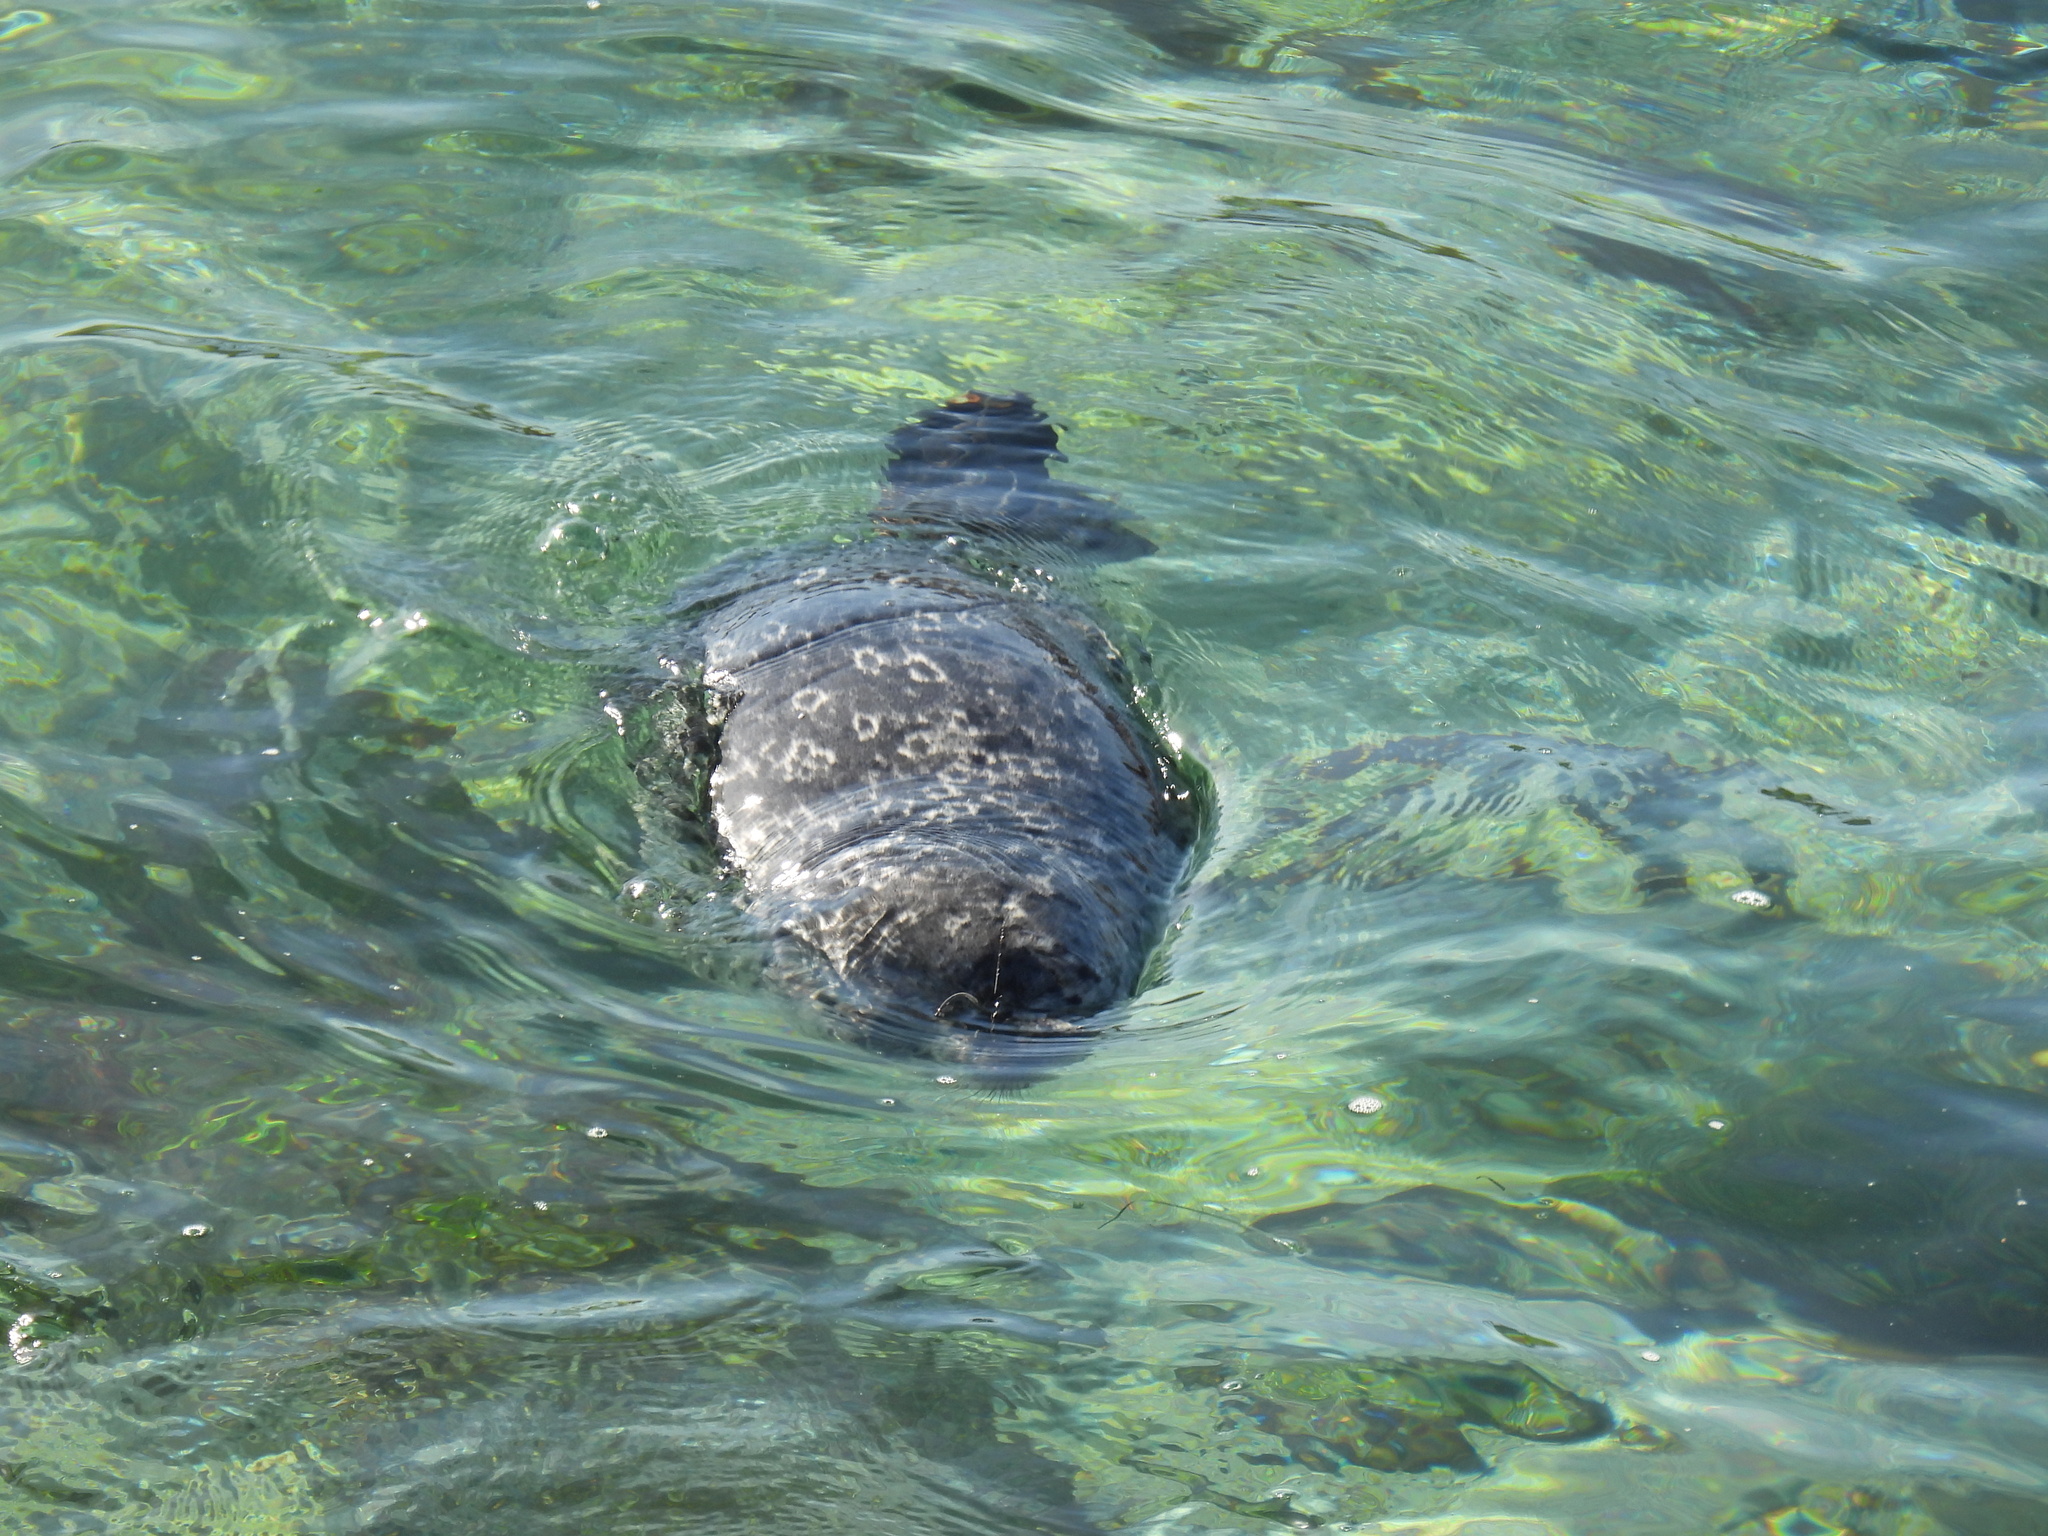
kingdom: Animalia
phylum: Chordata
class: Mammalia
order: Carnivora
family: Phocidae
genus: Phoca
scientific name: Phoca vitulina
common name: Harbor seal
